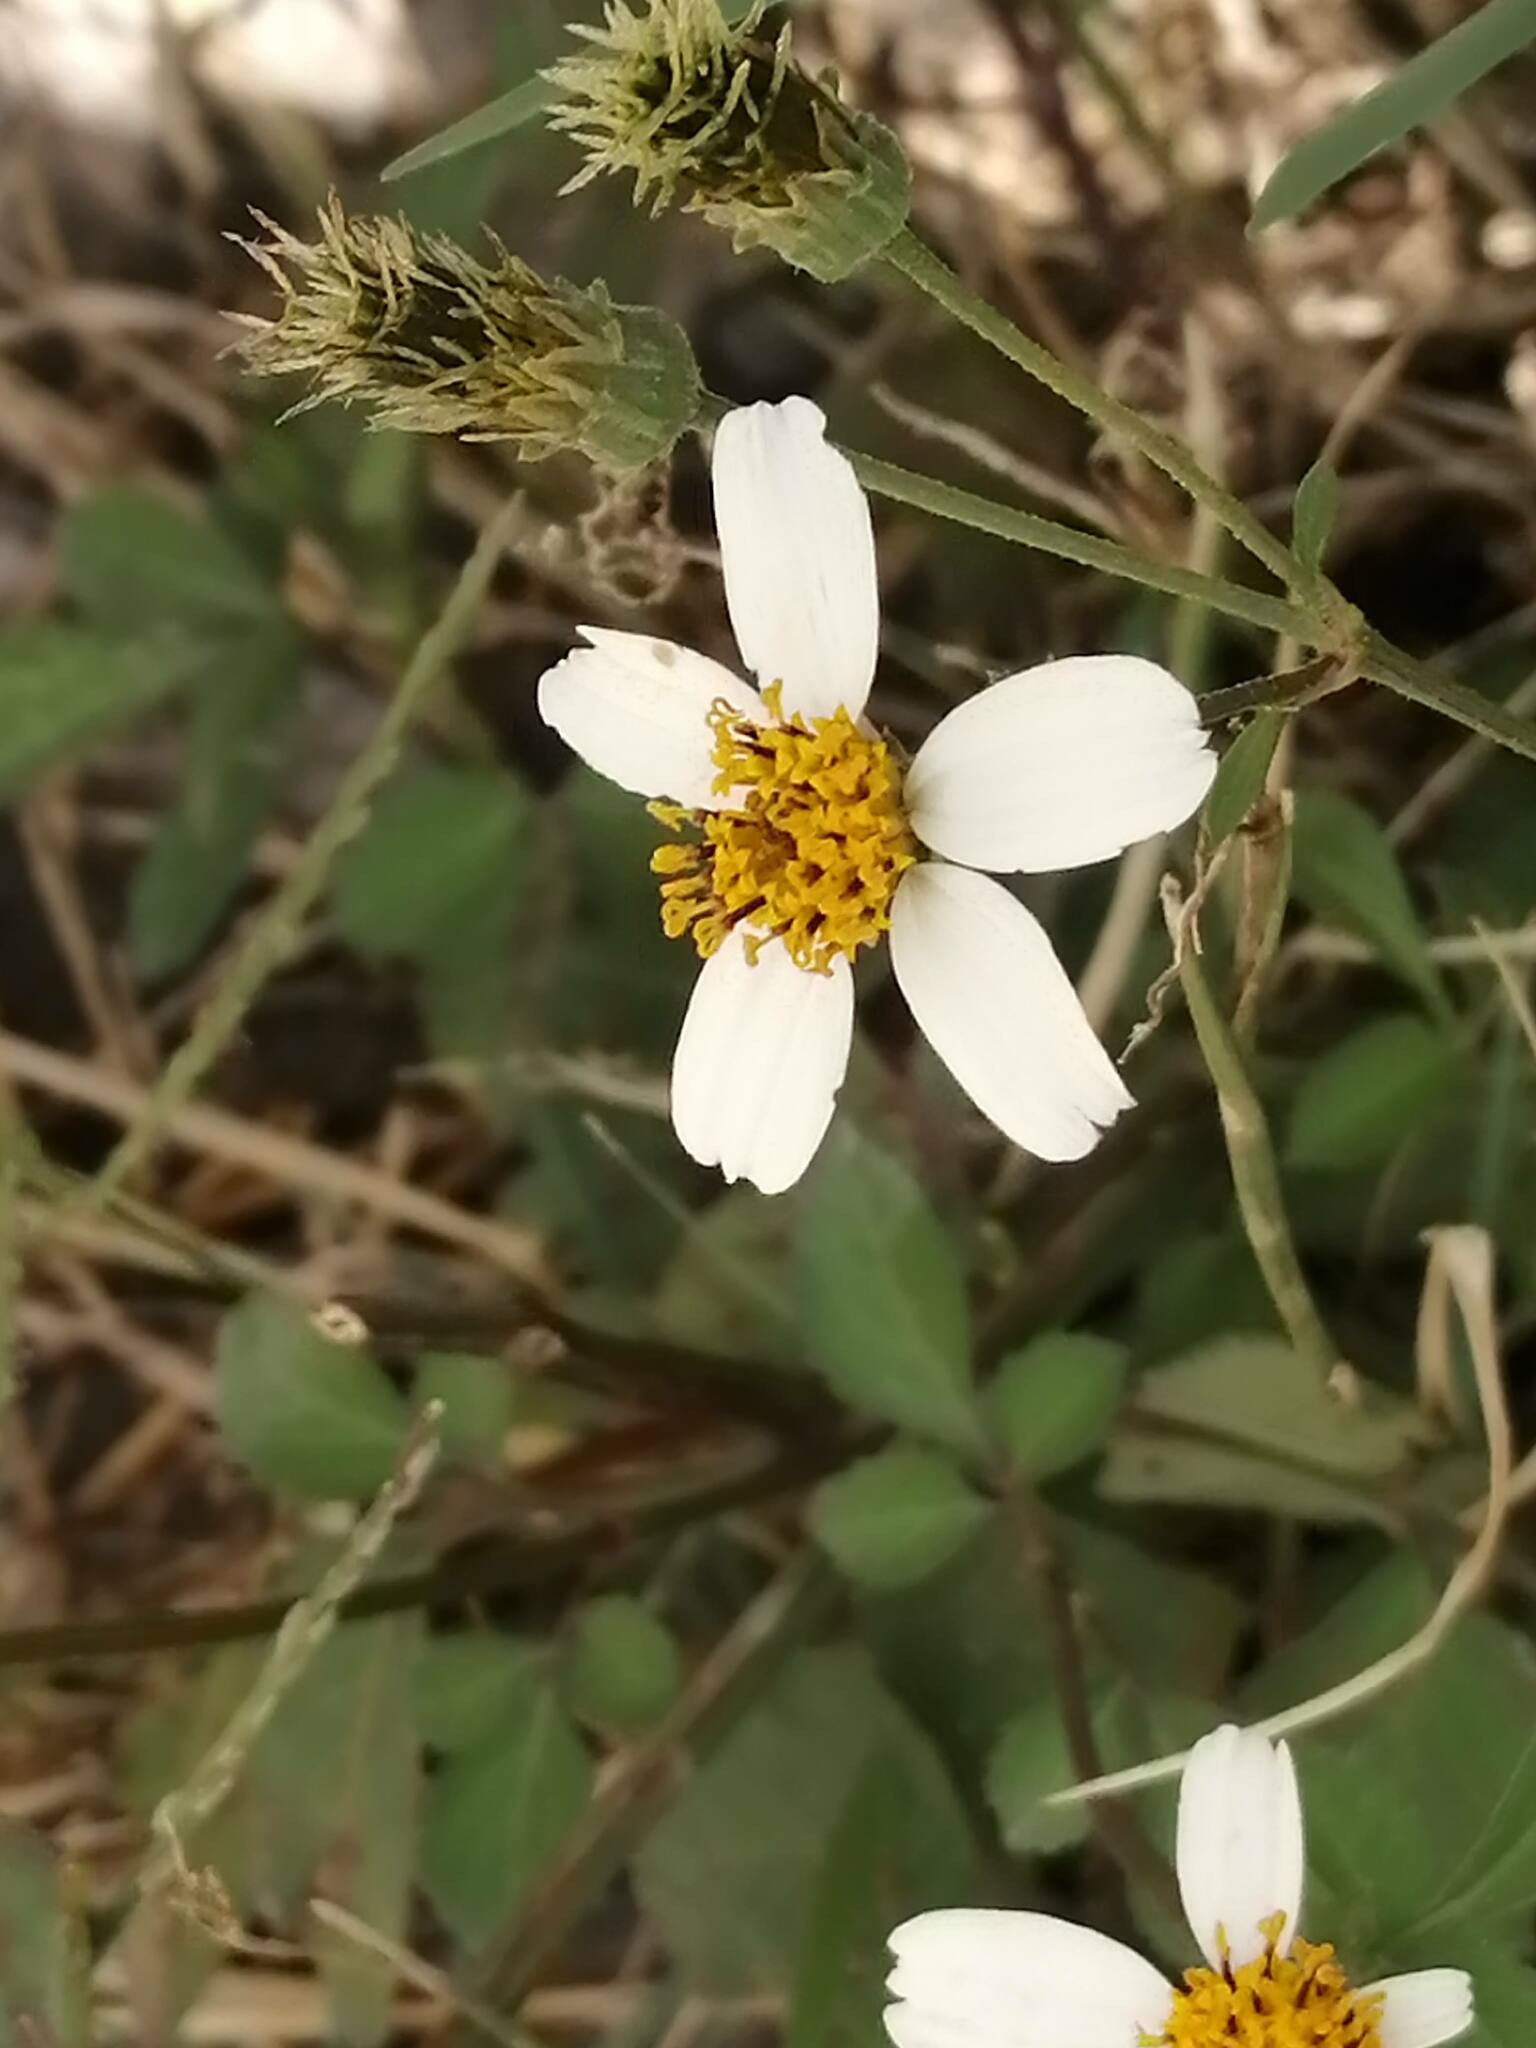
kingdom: Plantae
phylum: Tracheophyta
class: Magnoliopsida
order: Asterales
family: Asteraceae
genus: Bidens
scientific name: Bidens alba
